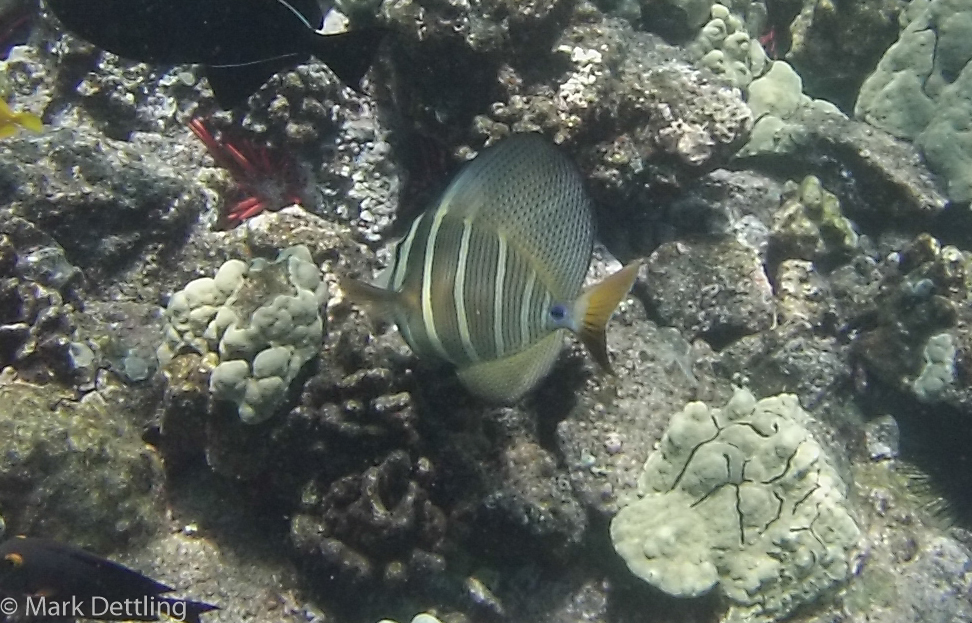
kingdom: Animalia
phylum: Chordata
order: Perciformes
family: Acanthuridae
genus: Zebrasoma
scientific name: Zebrasoma veliferum
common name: Sailfin surgeonfish
